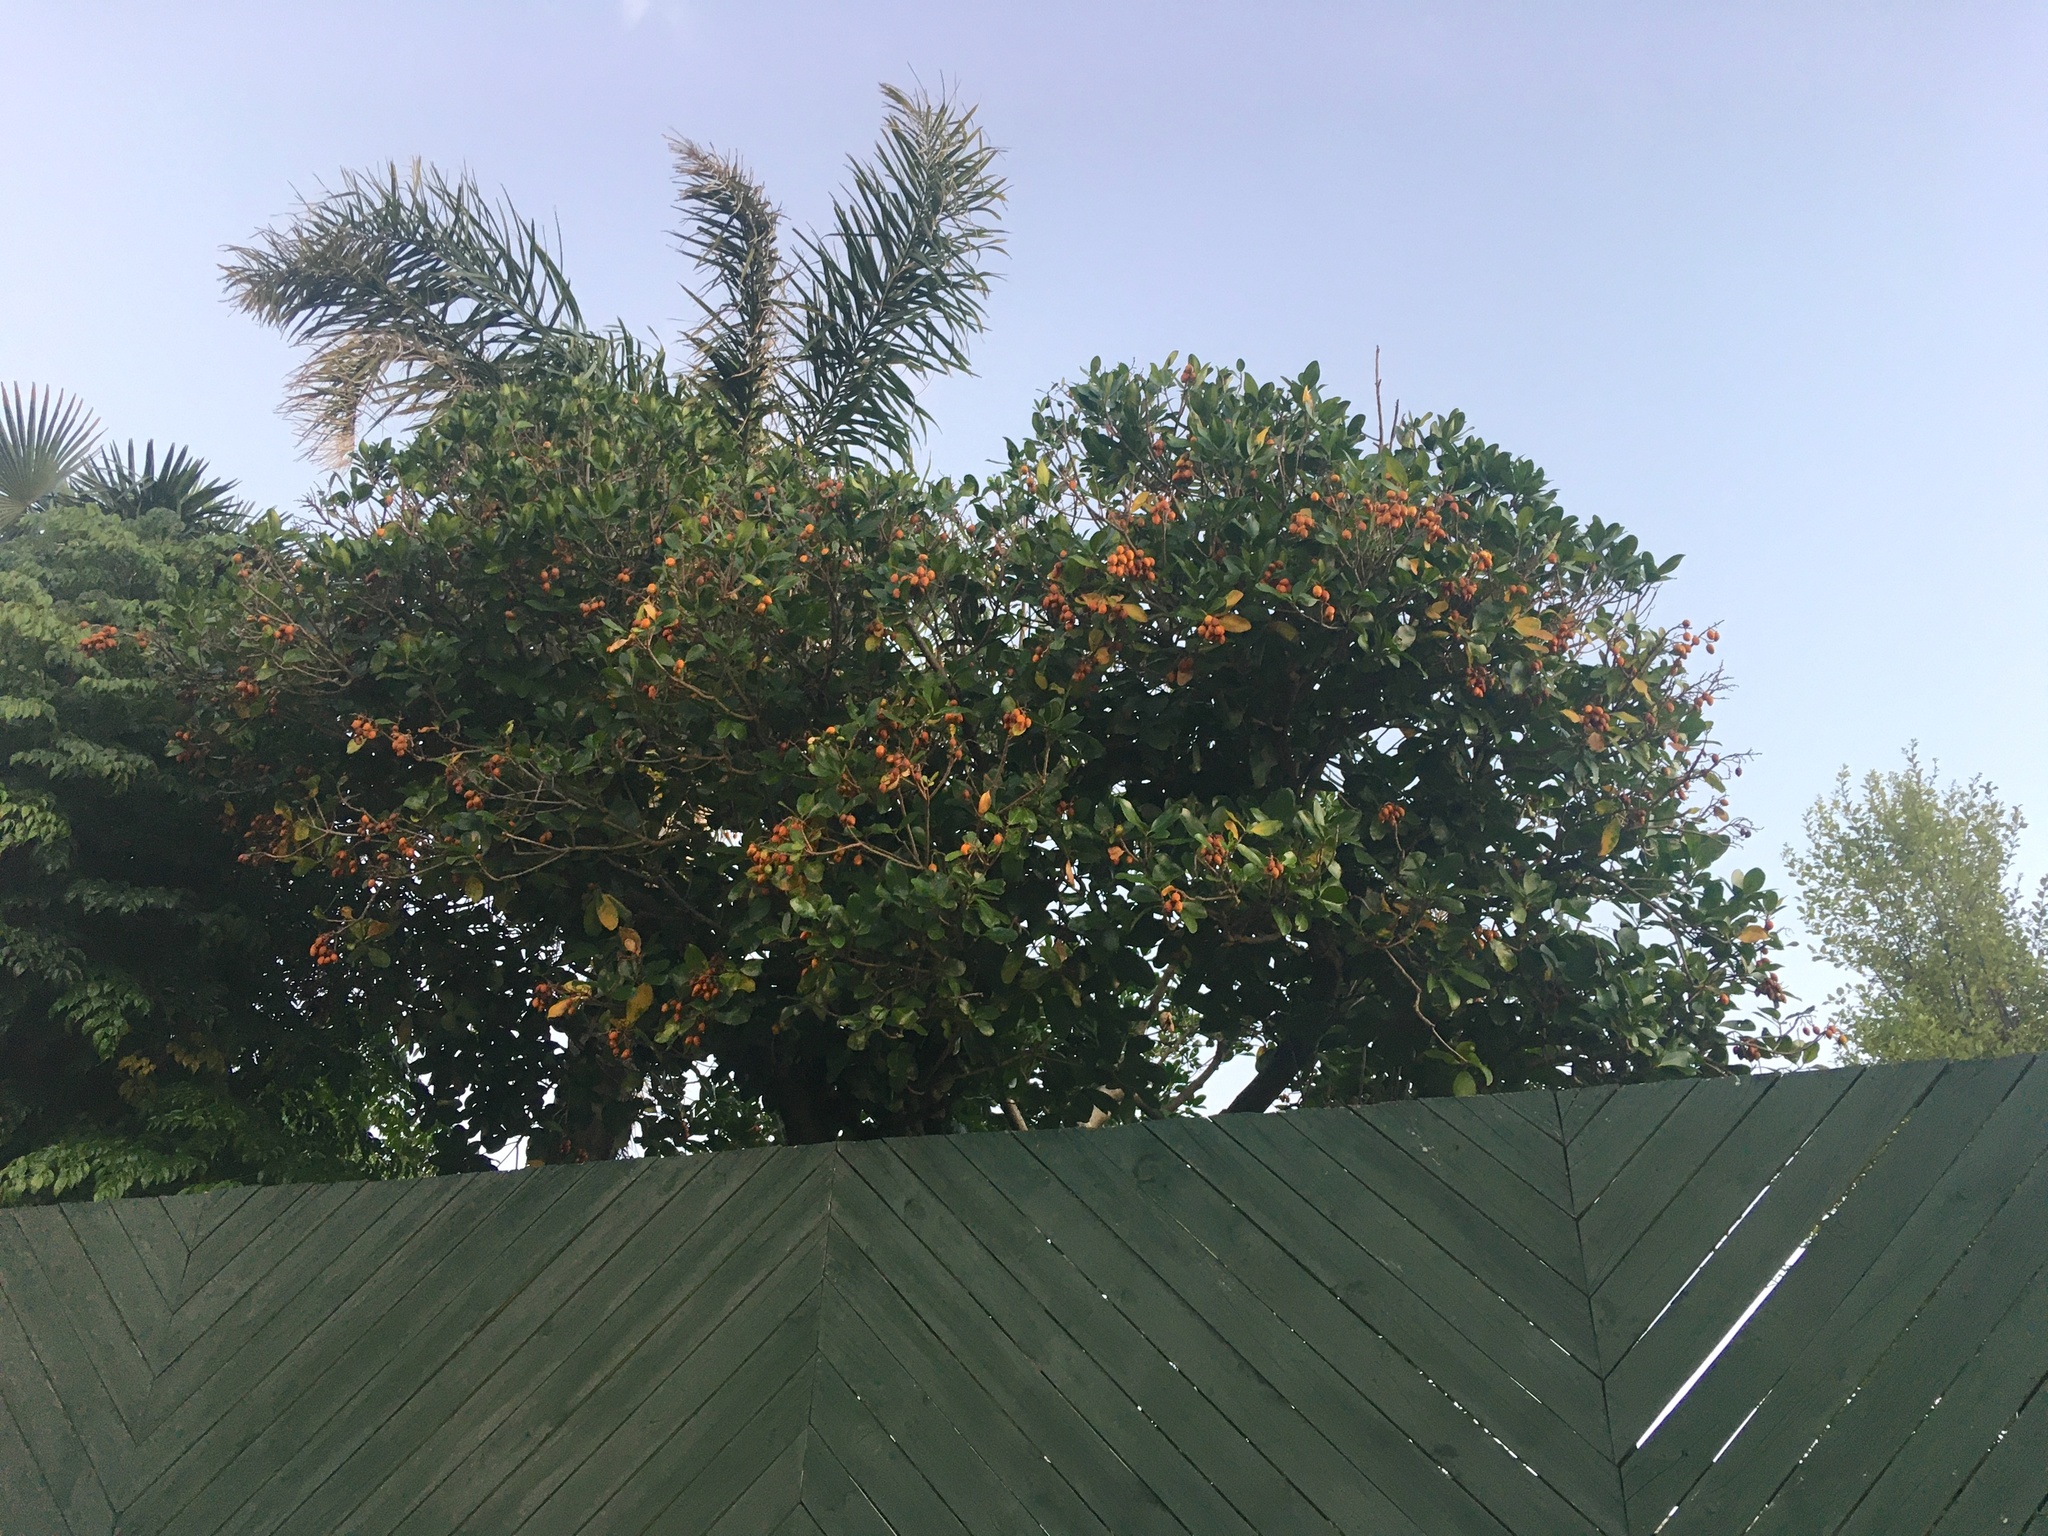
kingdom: Plantae
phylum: Tracheophyta
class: Magnoliopsida
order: Cucurbitales
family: Corynocarpaceae
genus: Corynocarpus
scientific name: Corynocarpus laevigatus
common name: New zealand laurel
